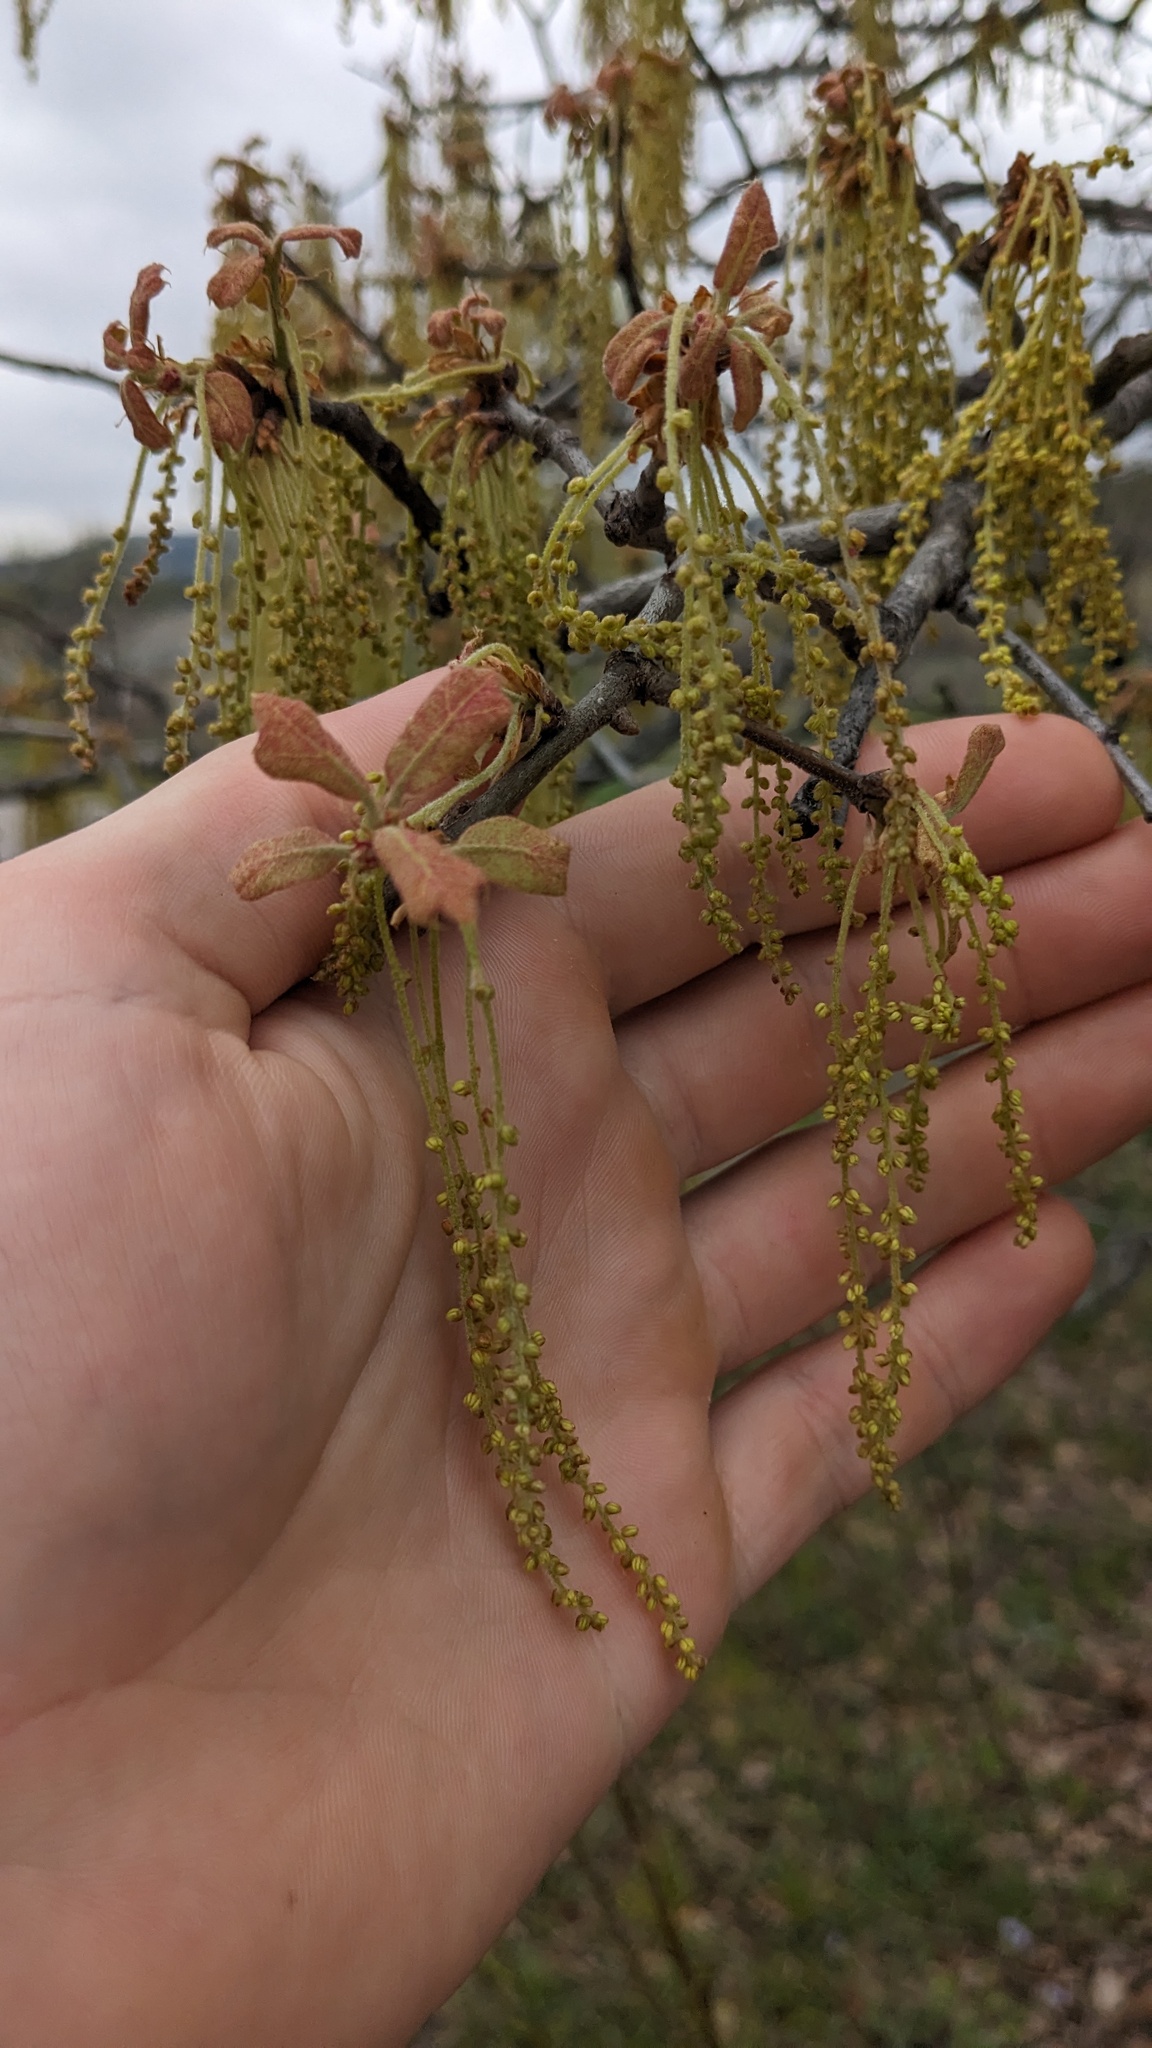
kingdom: Plantae
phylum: Tracheophyta
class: Magnoliopsida
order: Fagales
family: Fagaceae
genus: Quercus
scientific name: Quercus marilandica
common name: Blackjack oak
